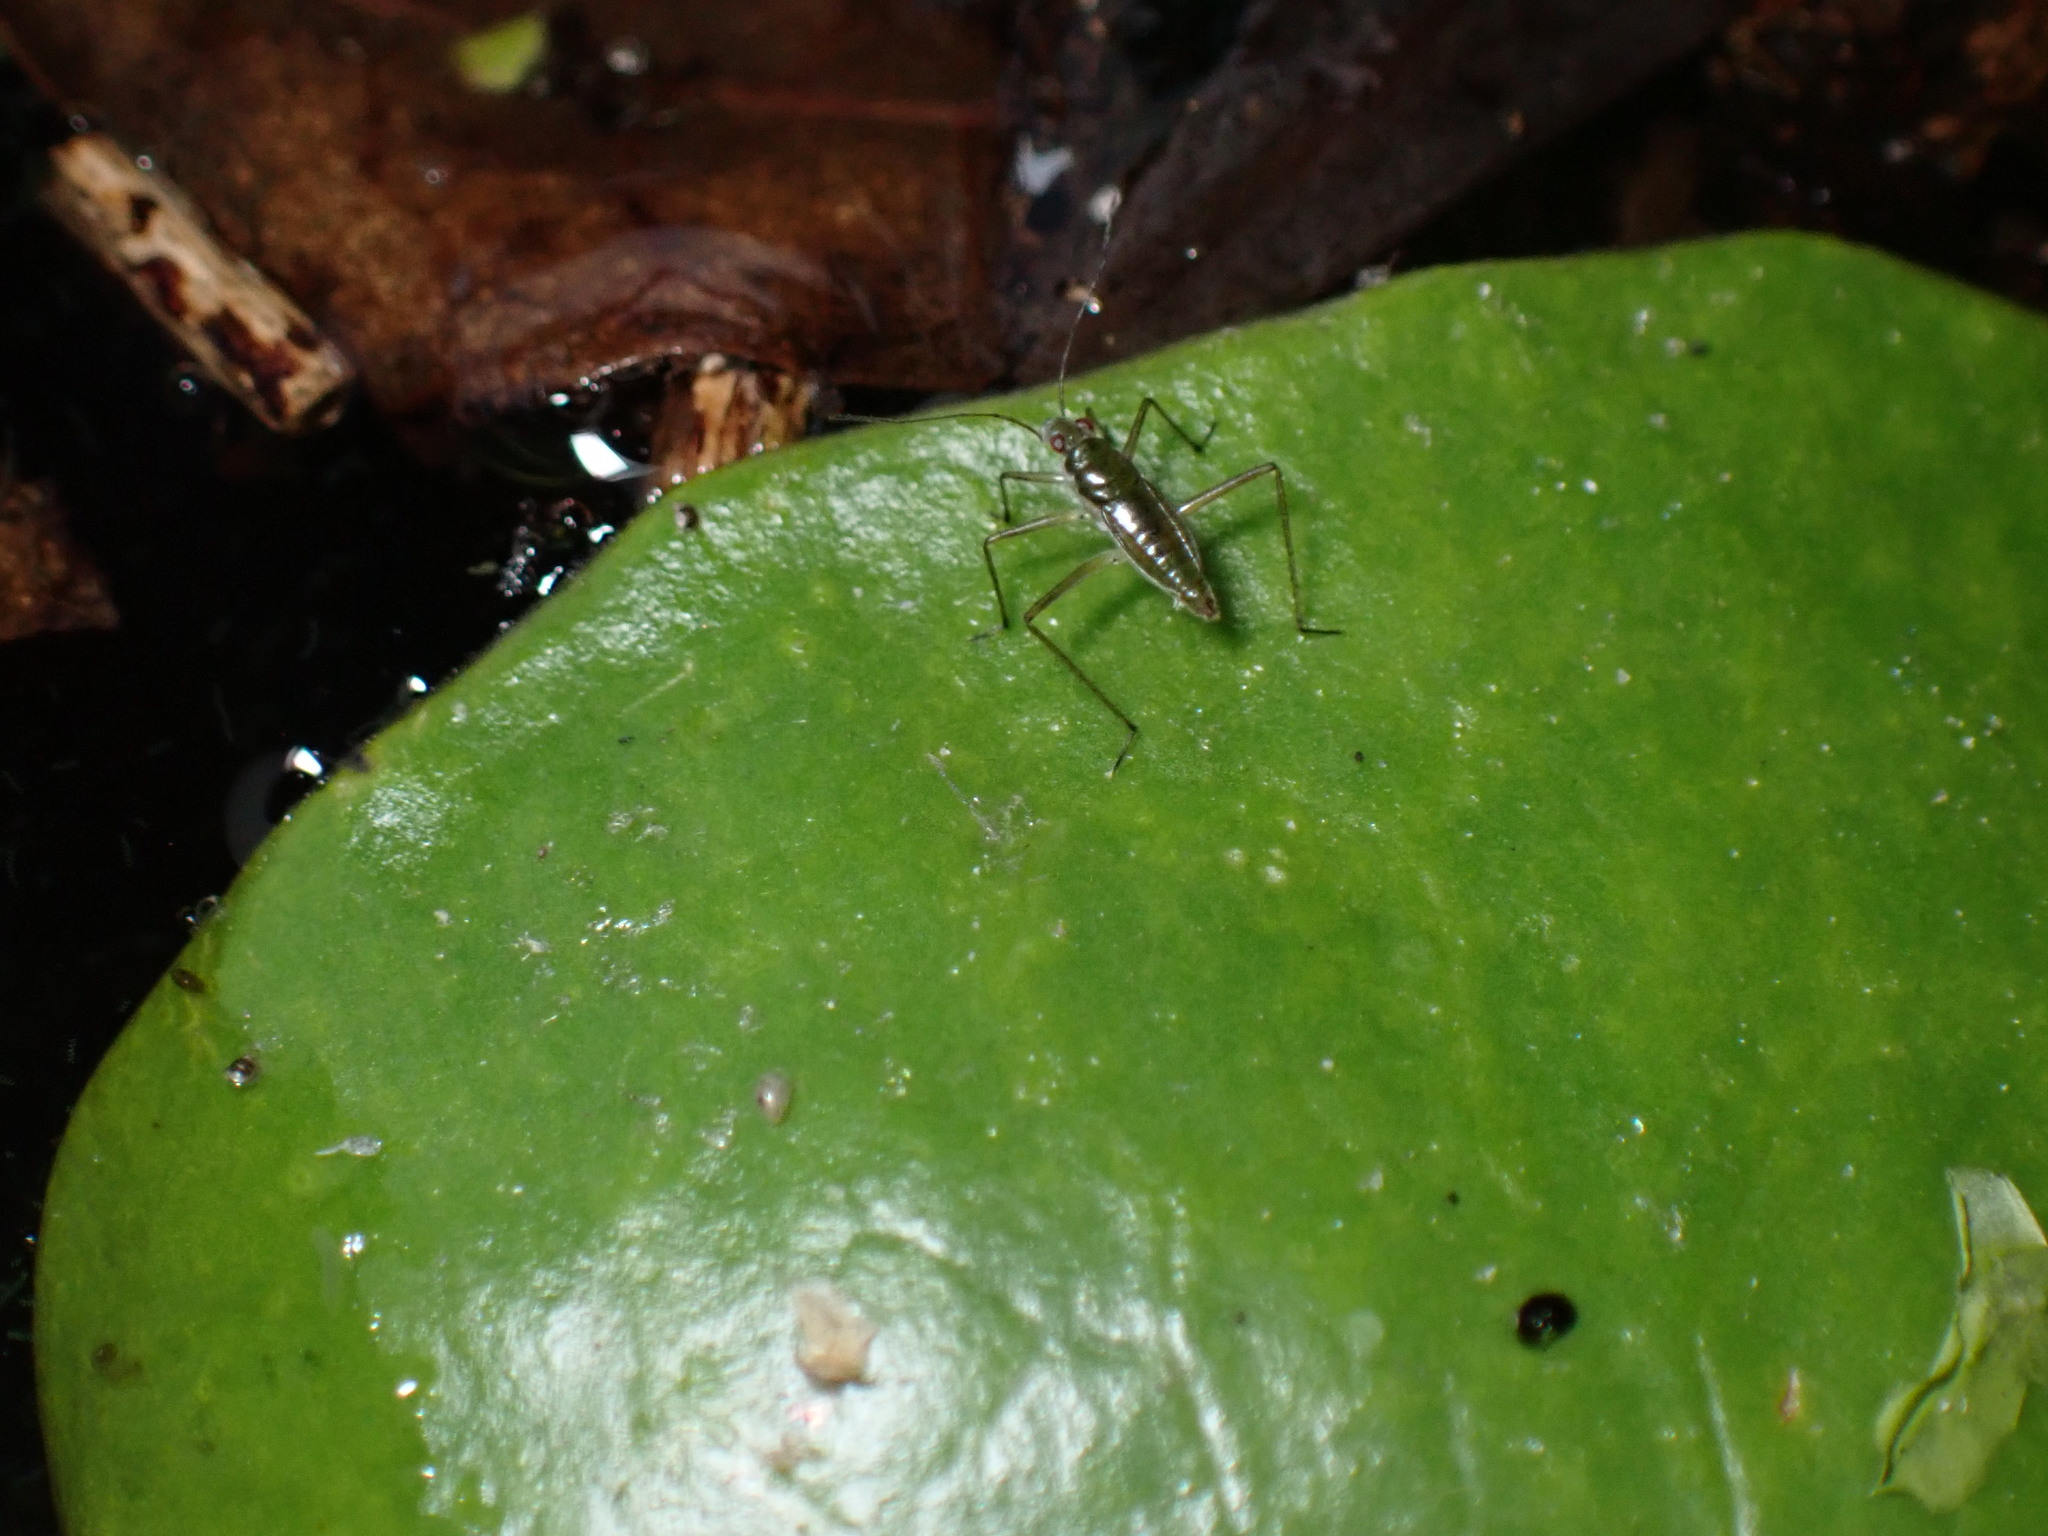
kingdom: Animalia
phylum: Arthropoda
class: Insecta
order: Hemiptera
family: Mesoveliidae
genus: Mesovelia
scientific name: Mesovelia mulsanti
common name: Water treaders
